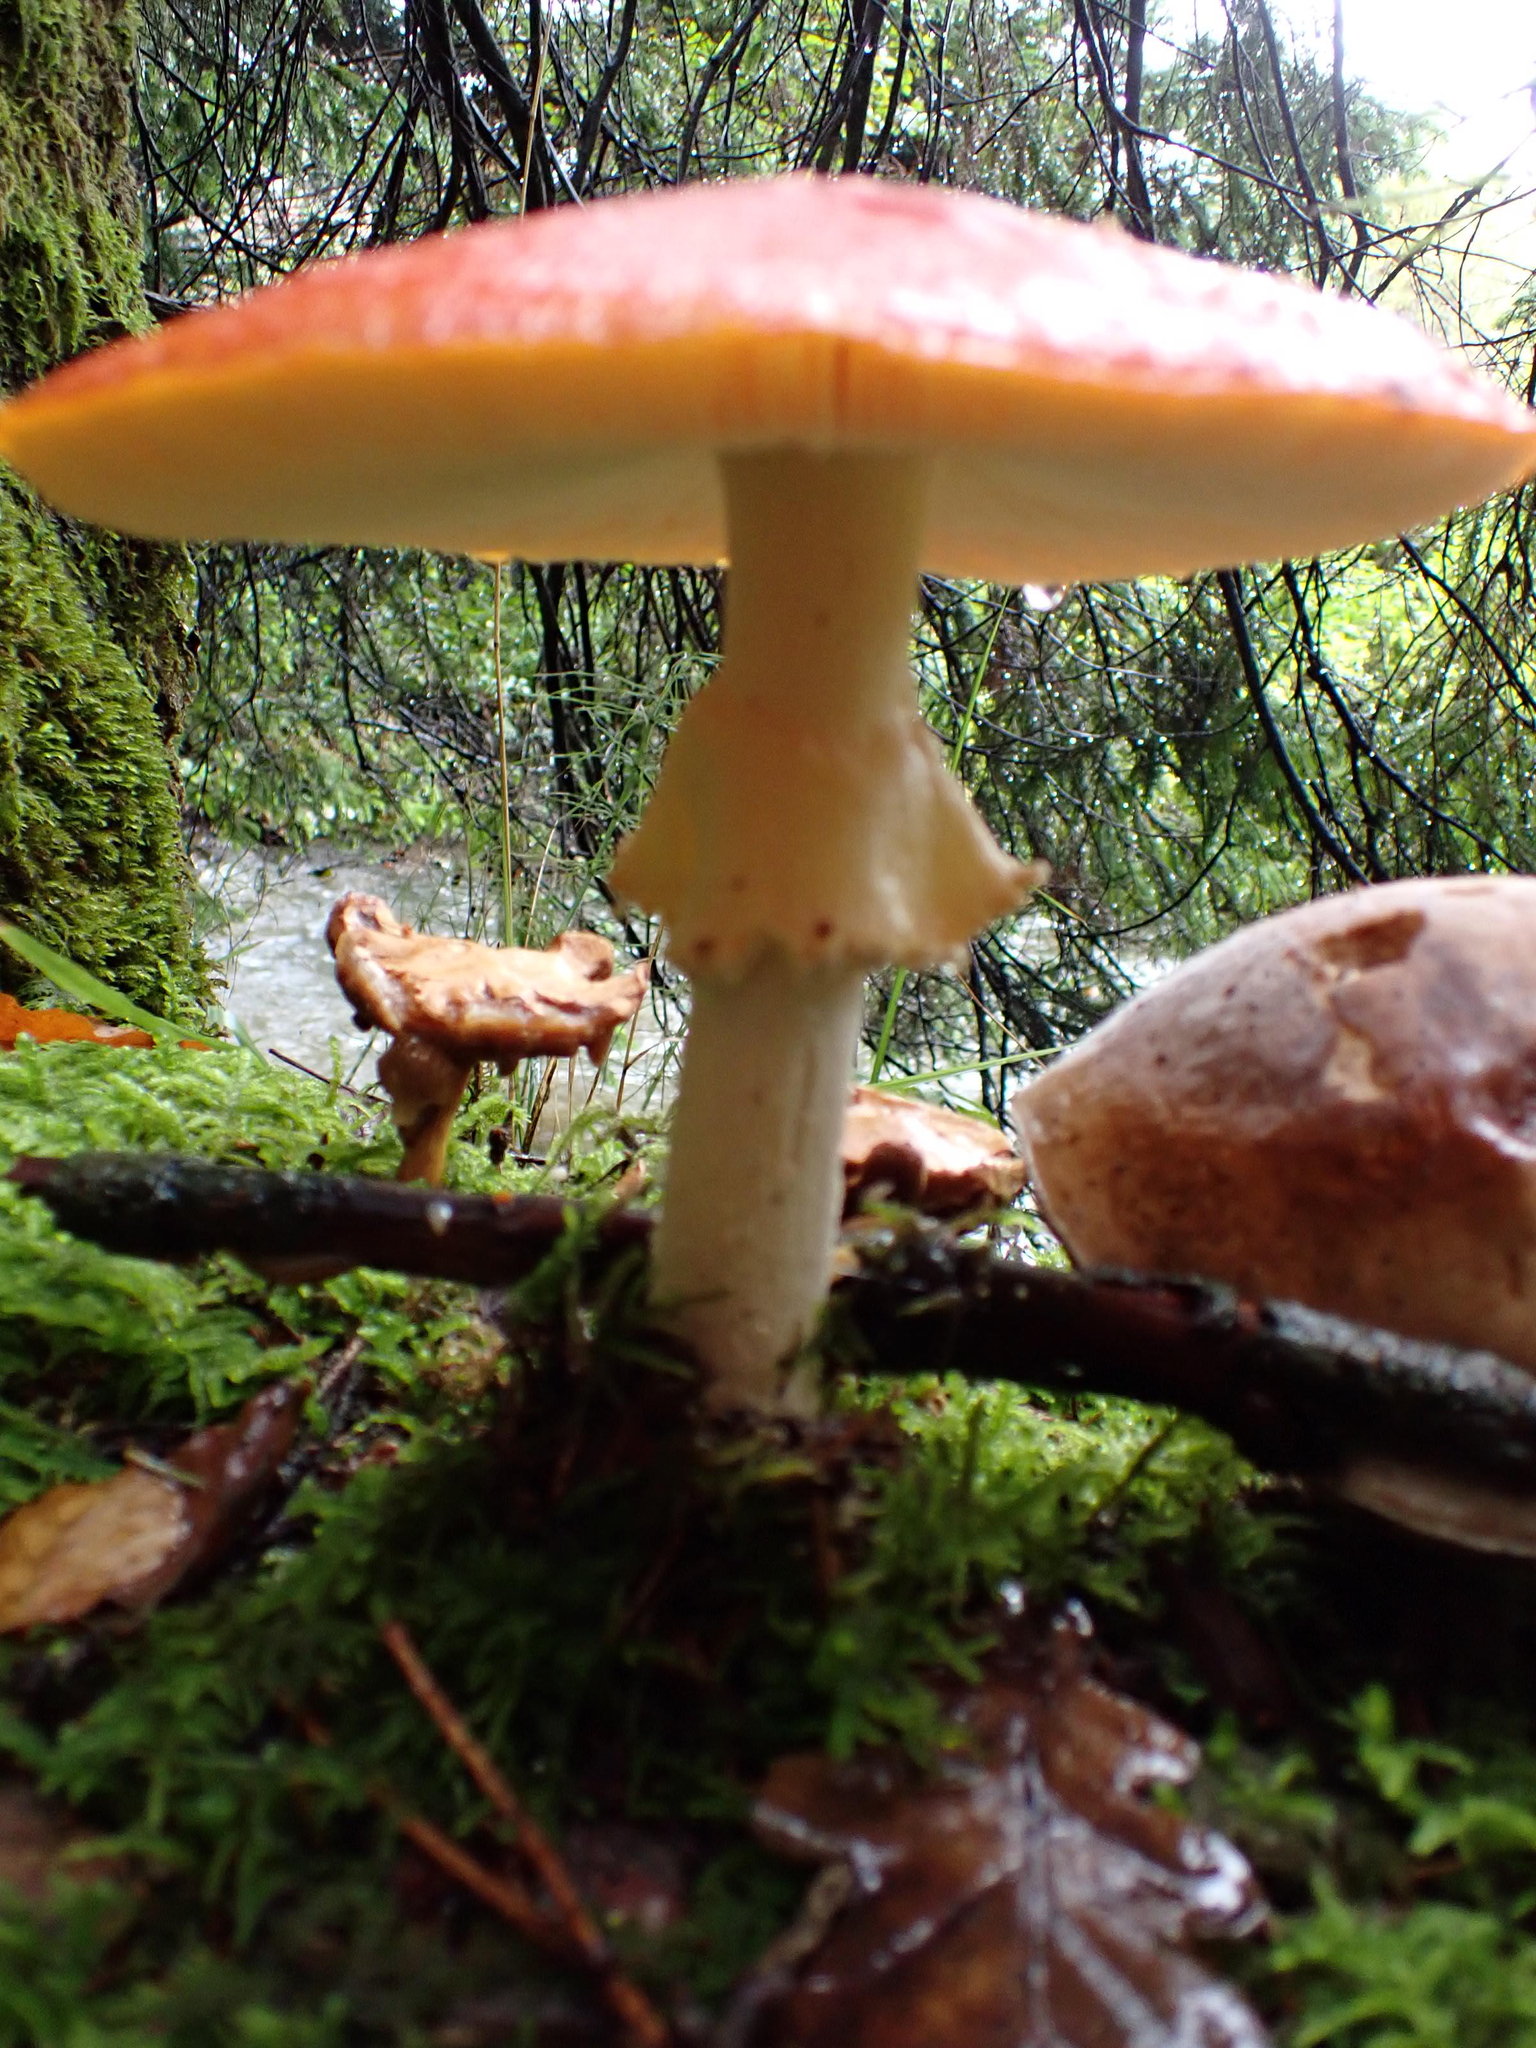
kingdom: Fungi
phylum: Basidiomycota
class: Agaricomycetes
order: Agaricales
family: Amanitaceae
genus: Amanita
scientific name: Amanita muscaria
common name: Fly agaric
